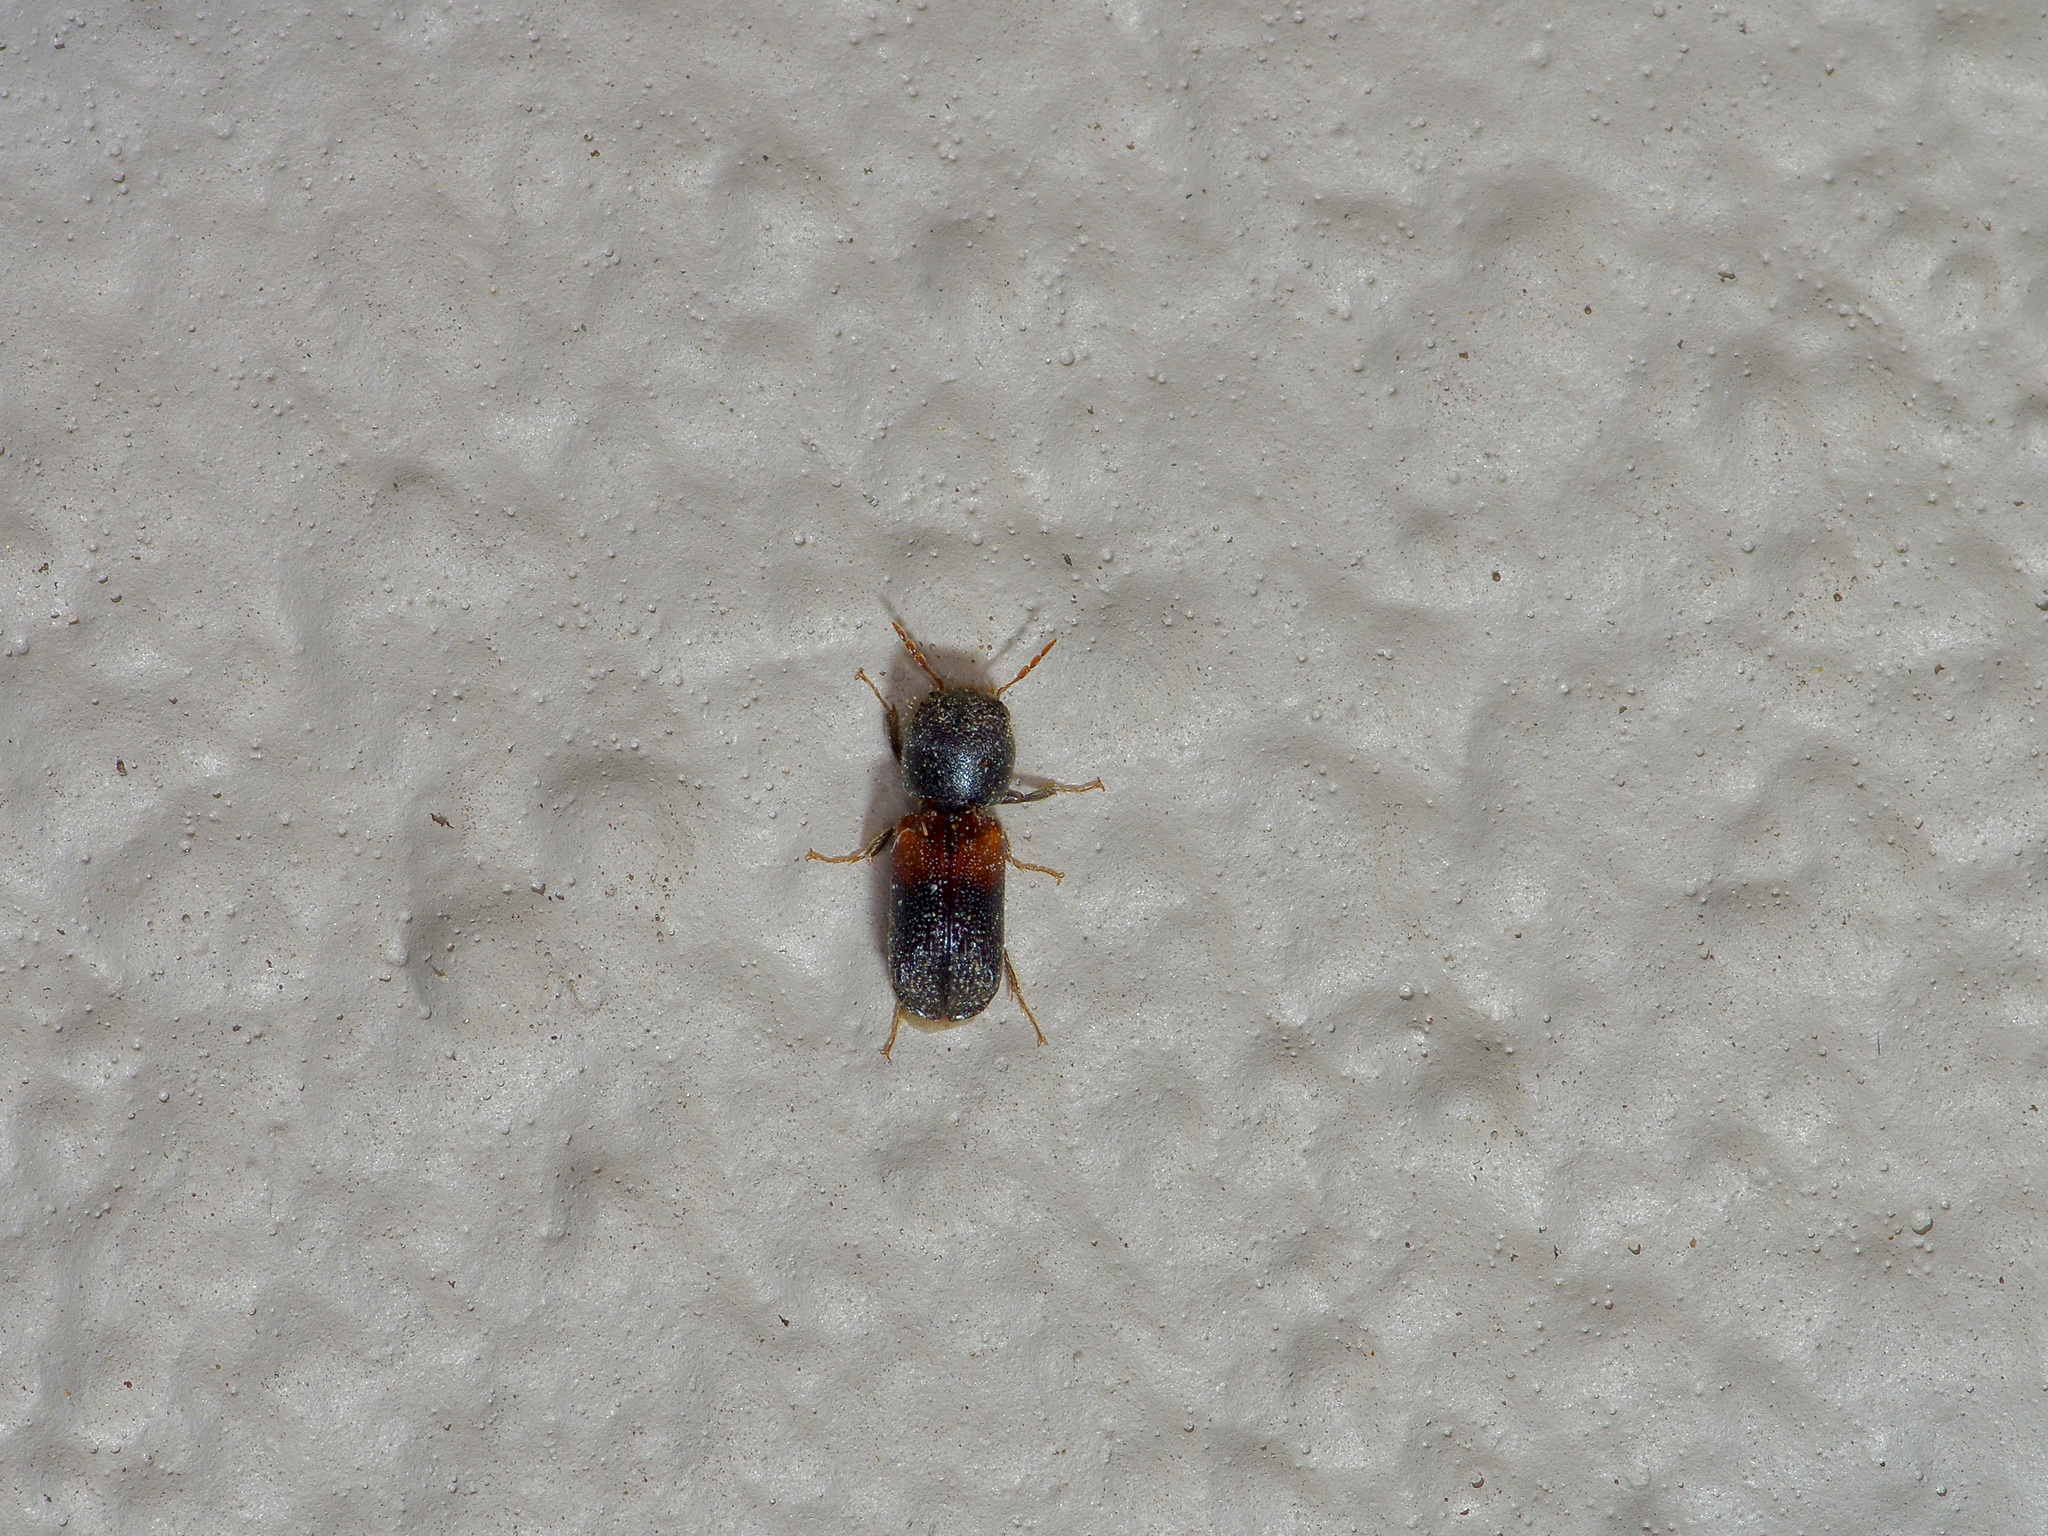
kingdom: Animalia
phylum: Arthropoda
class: Insecta
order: Coleoptera
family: Bostrichidae
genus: Xylobiops
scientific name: Xylobiops basilaris
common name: Red-shouldered bostrichid
